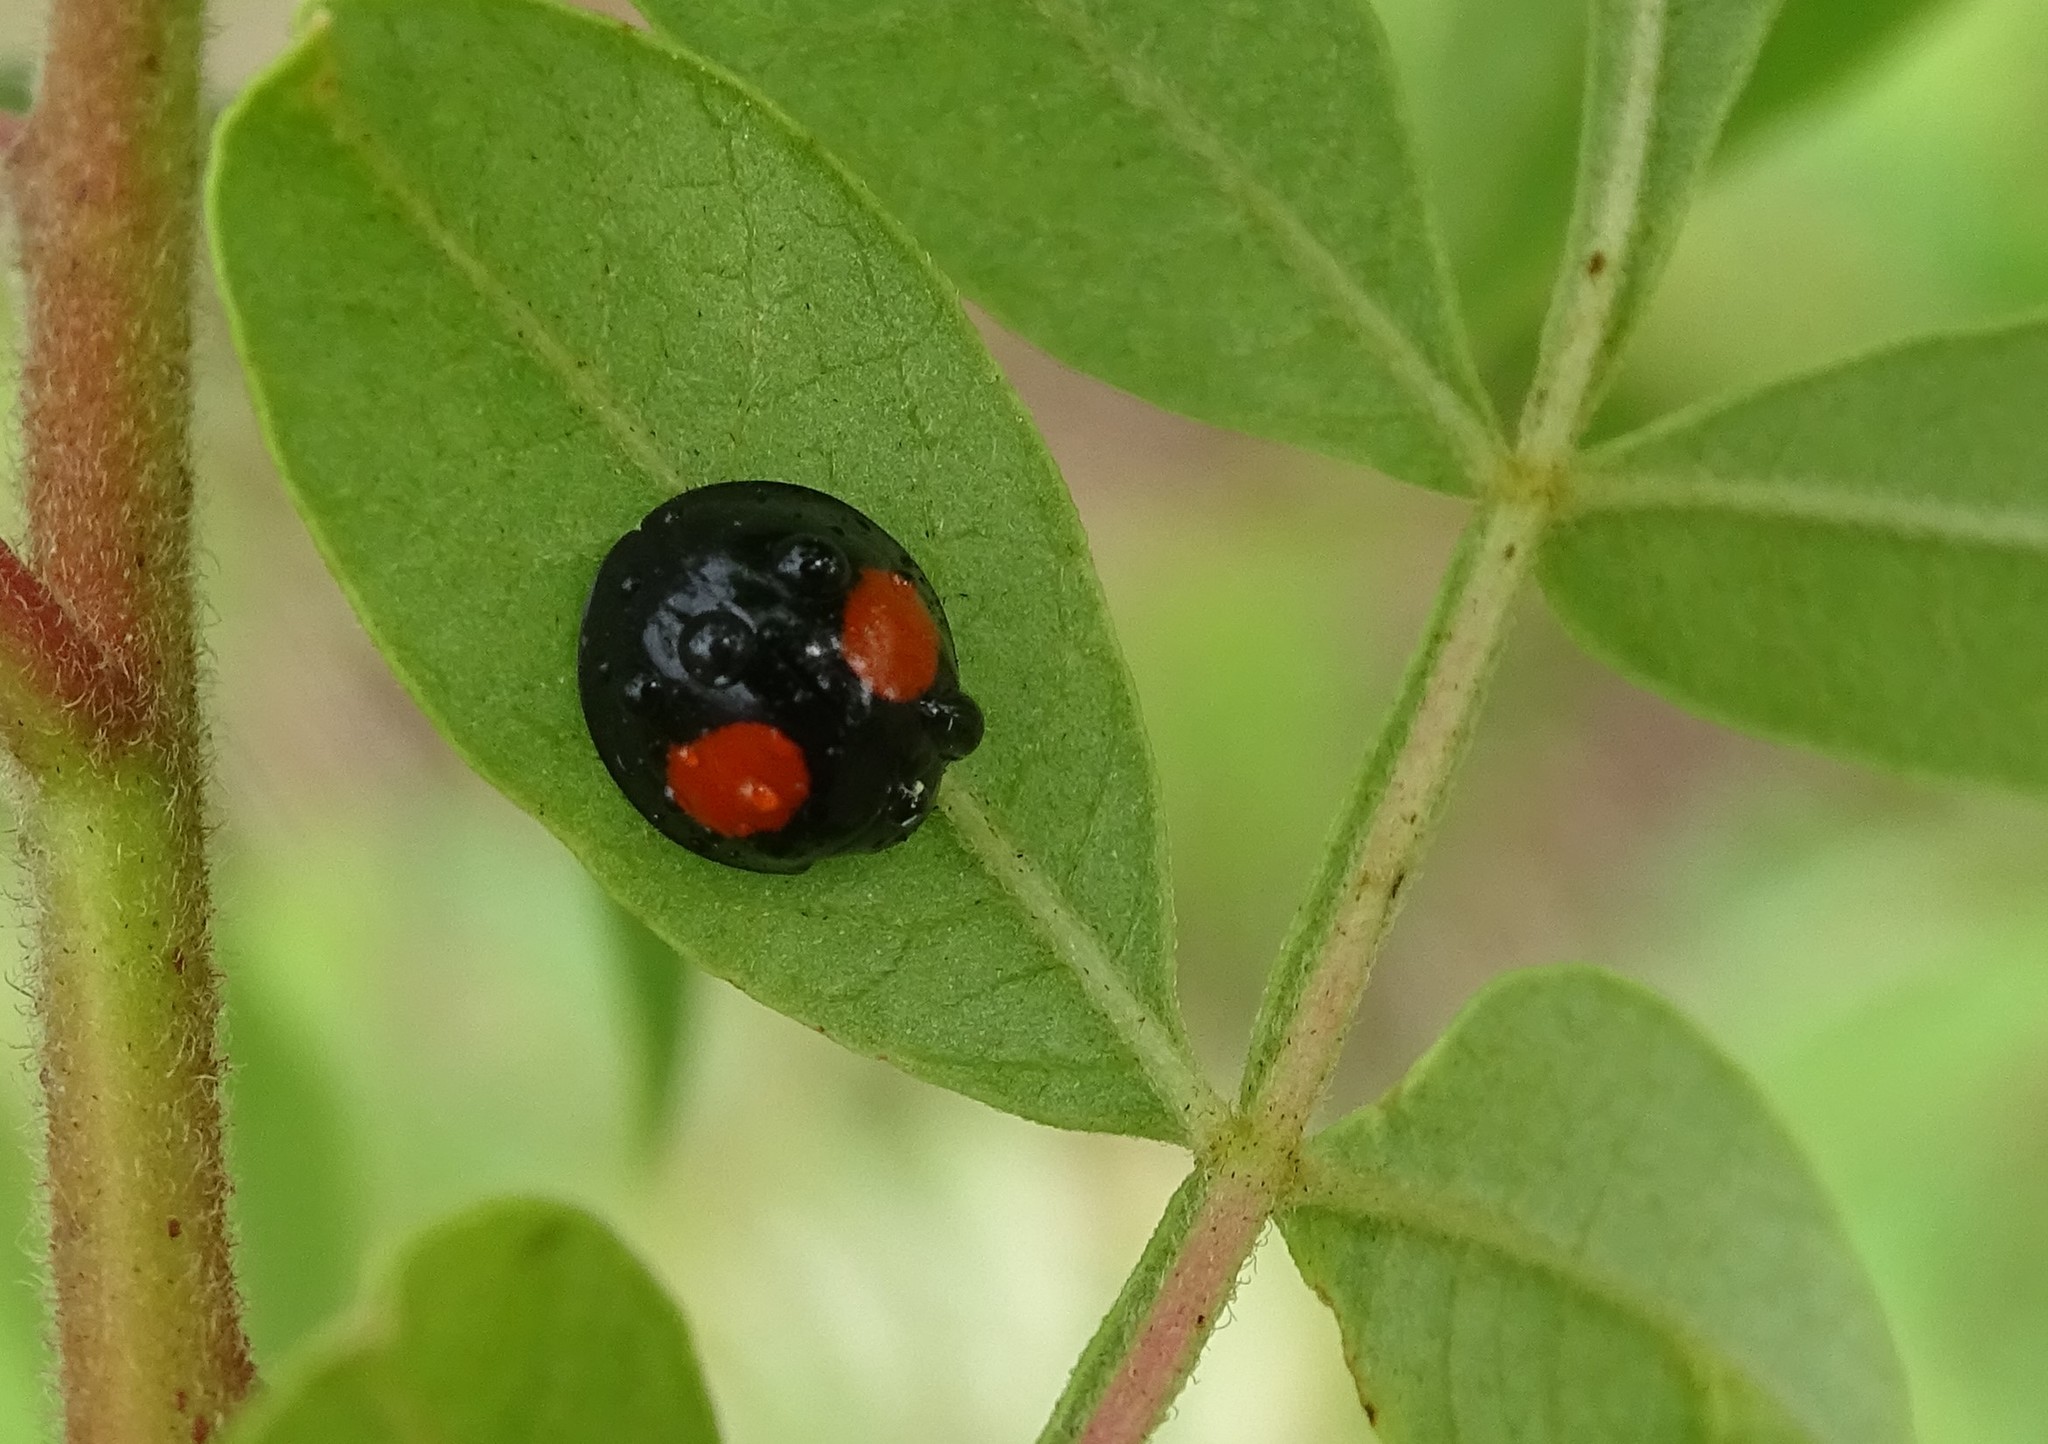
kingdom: Animalia
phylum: Arthropoda
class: Insecta
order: Coleoptera
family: Coccinellidae
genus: Chilocorus
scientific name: Chilocorus cacti
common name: Cactus lady beetle
